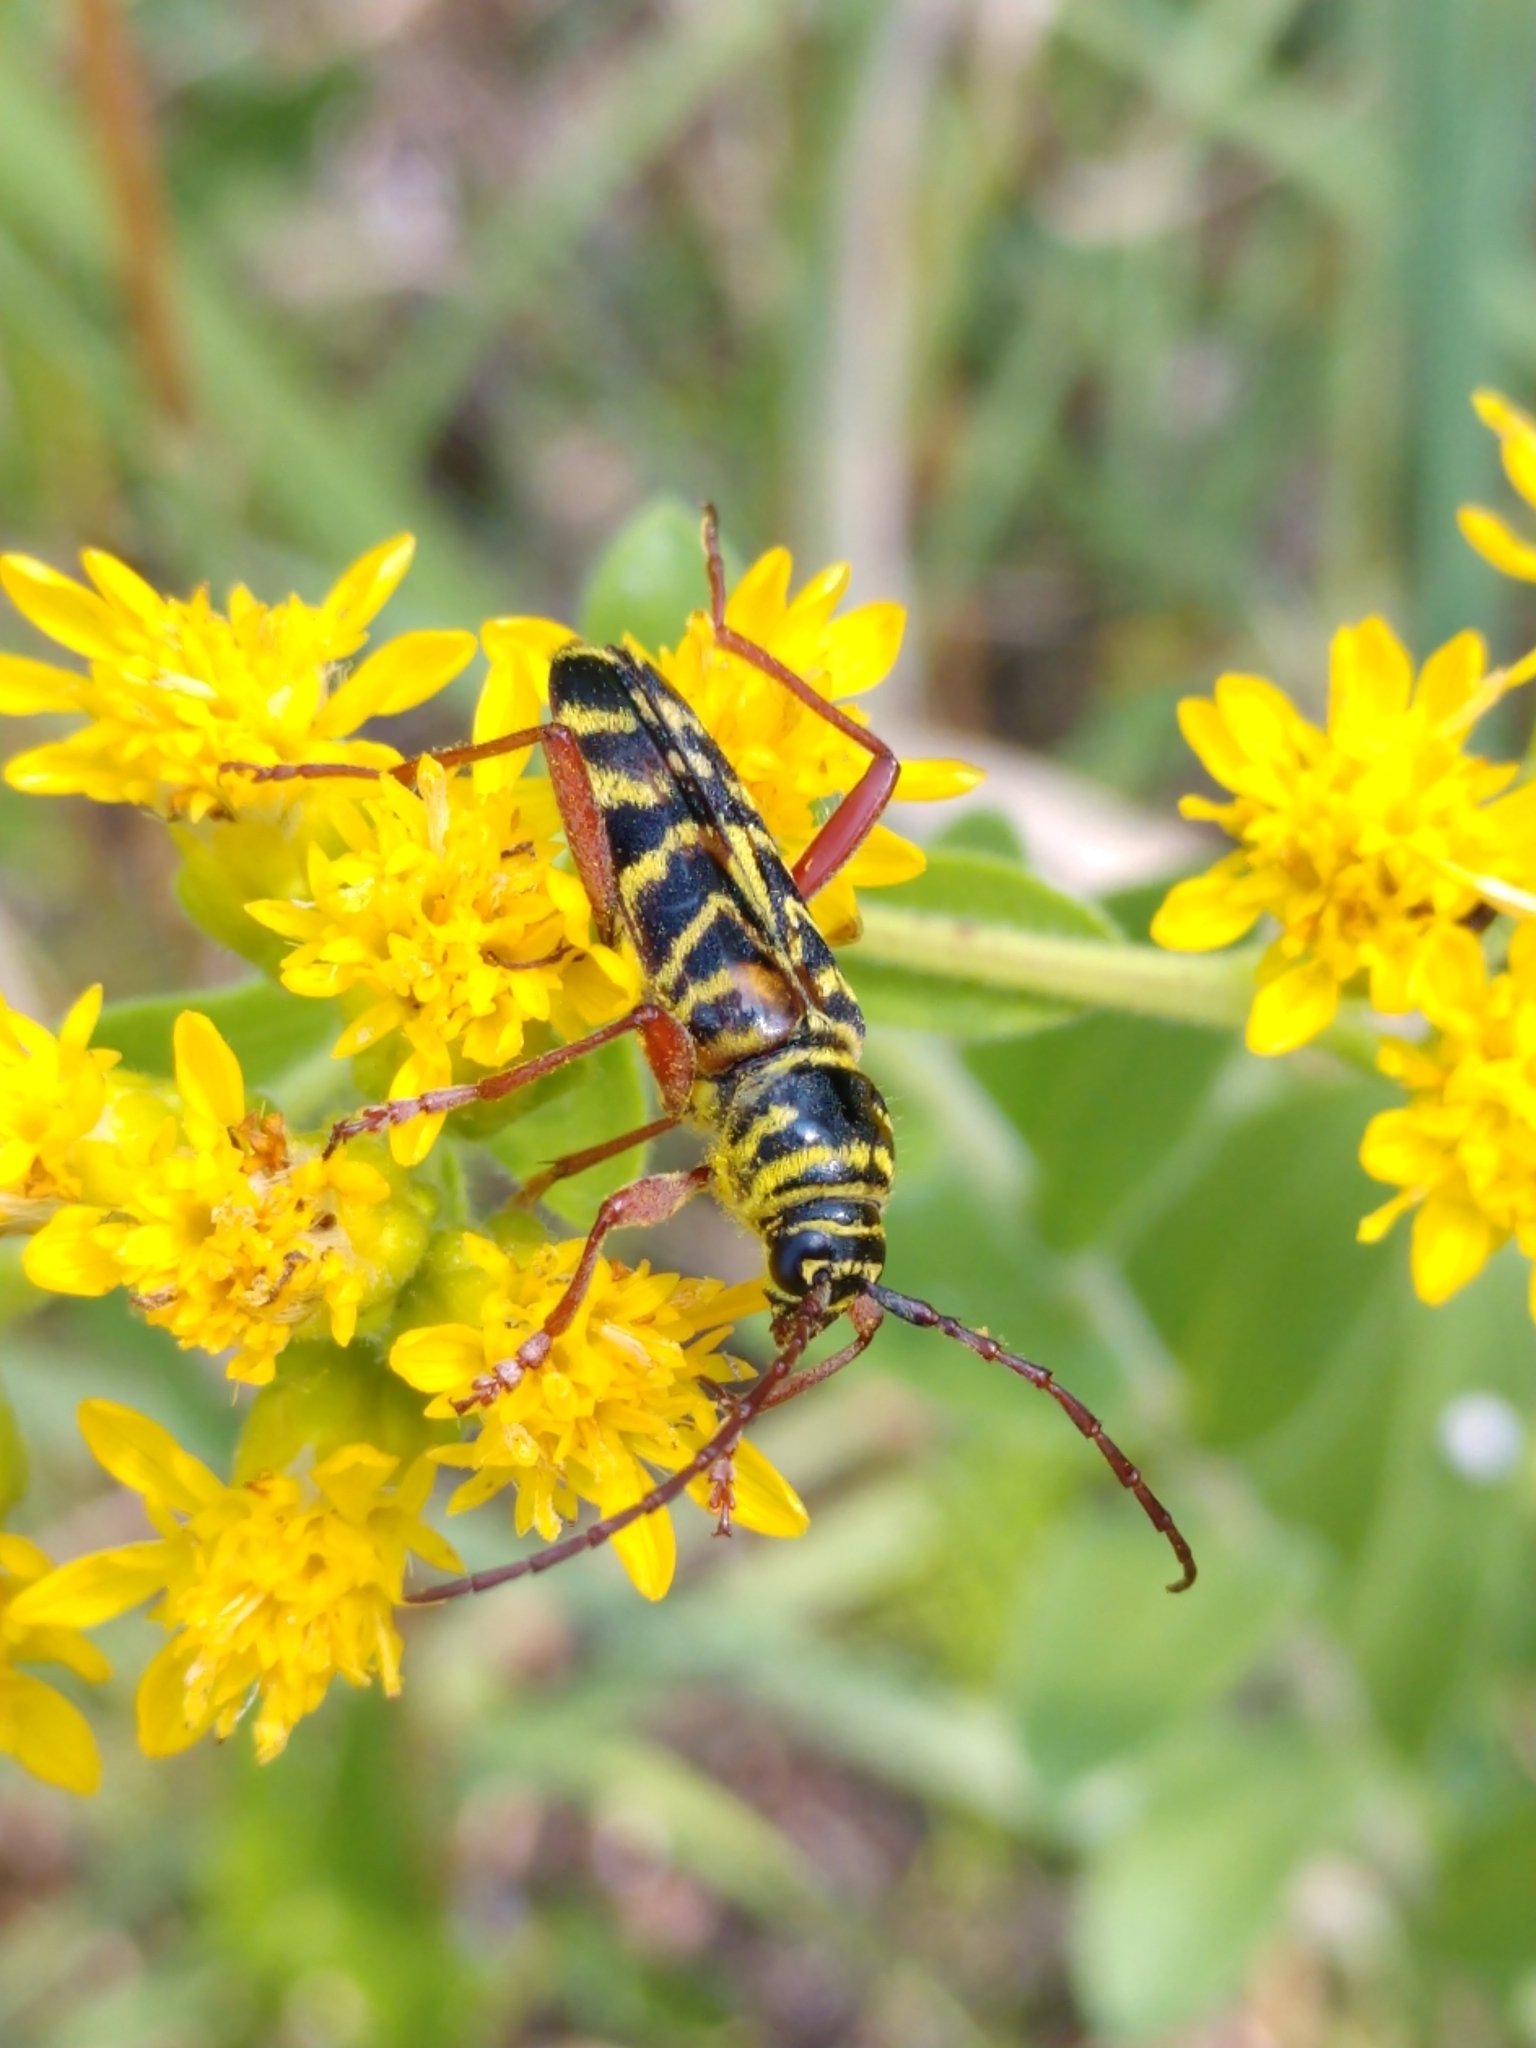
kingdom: Animalia
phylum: Arthropoda
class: Insecta
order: Coleoptera
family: Cerambycidae
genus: Megacyllene
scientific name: Megacyllene robiniae
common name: Locust borer
